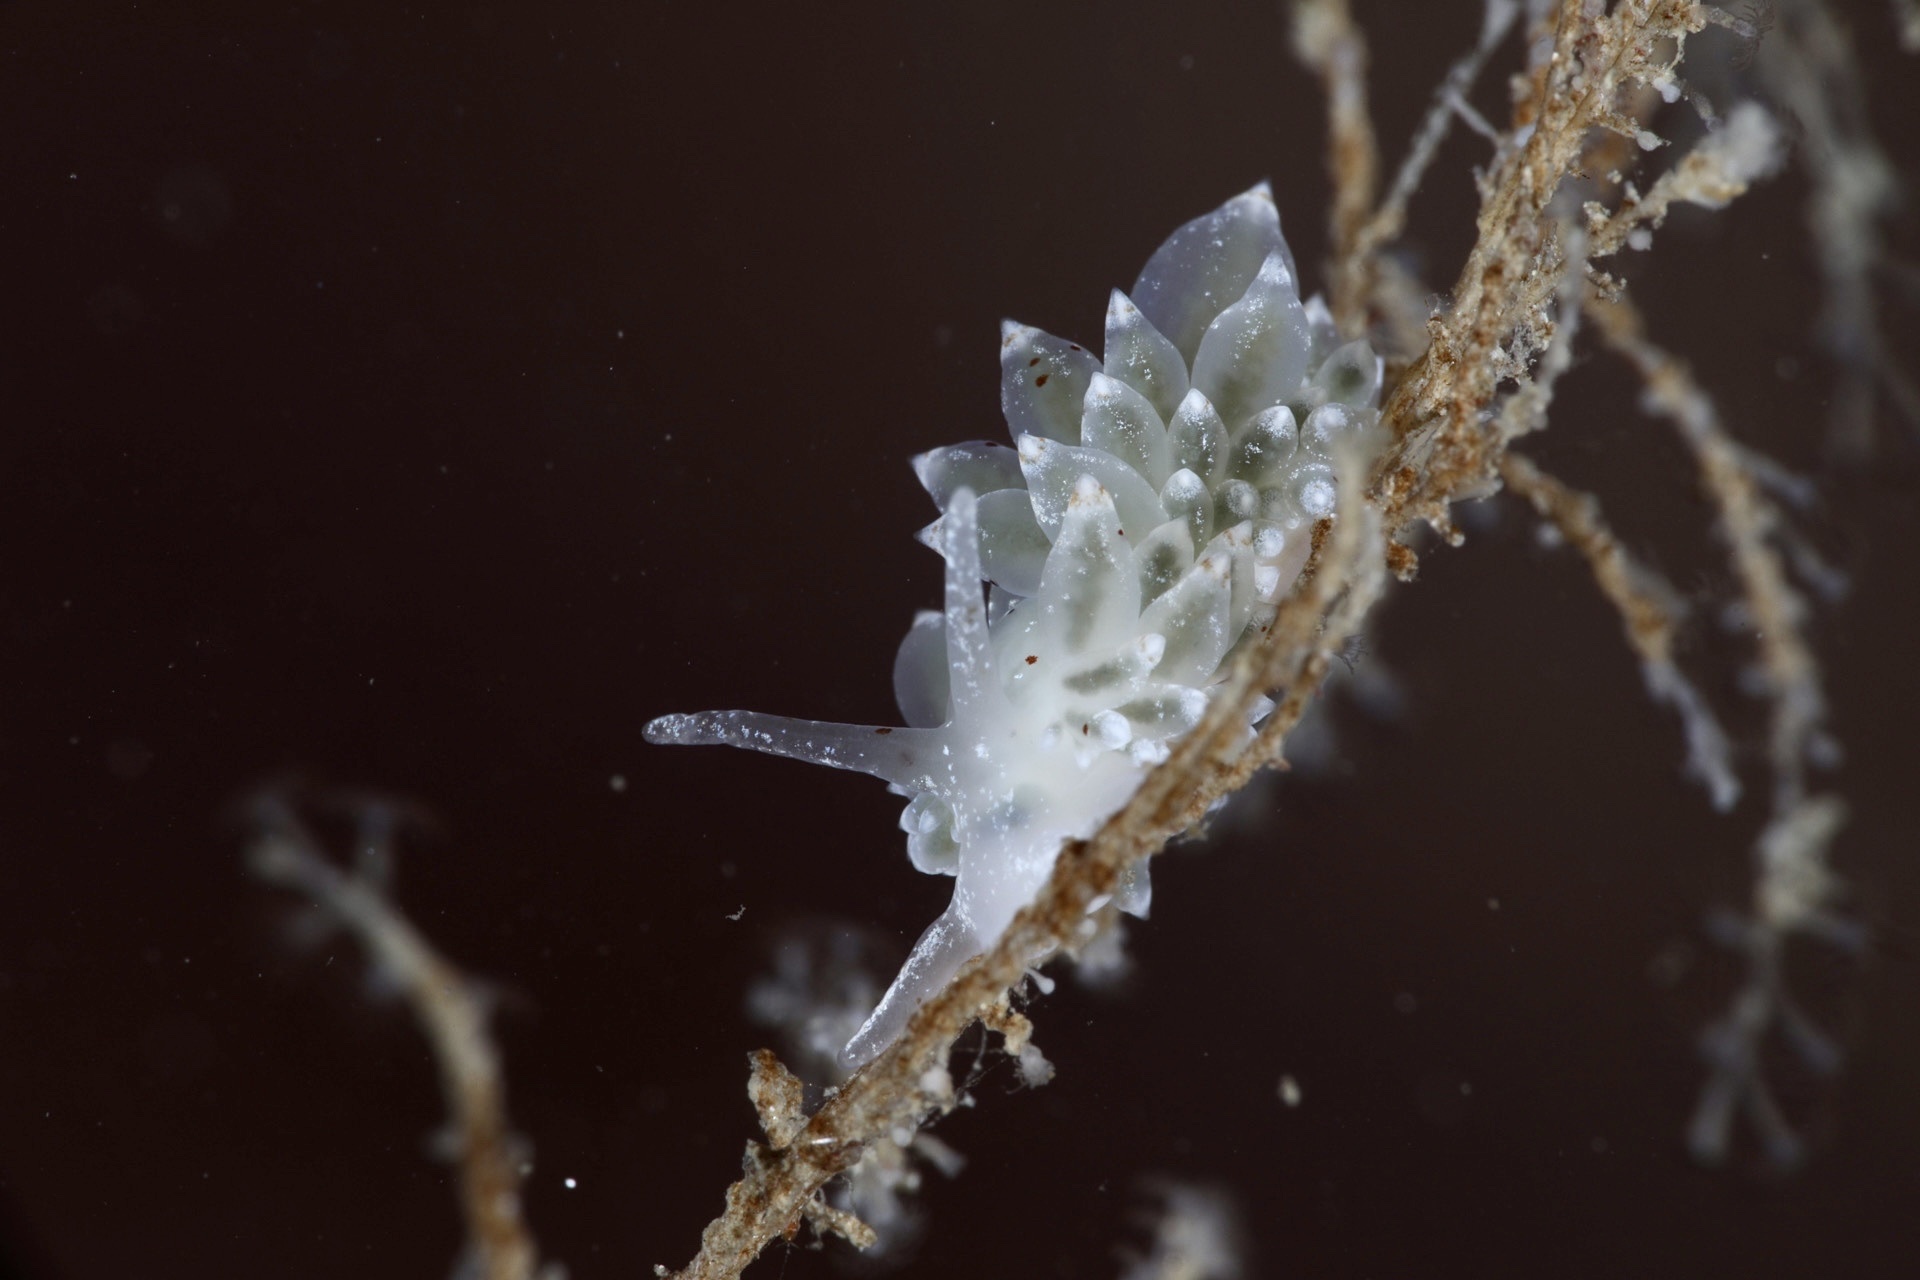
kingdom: Animalia
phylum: Mollusca
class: Gastropoda
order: Nudibranchia
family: Eubranchidae
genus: Amphorina
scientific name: Amphorina pallida
